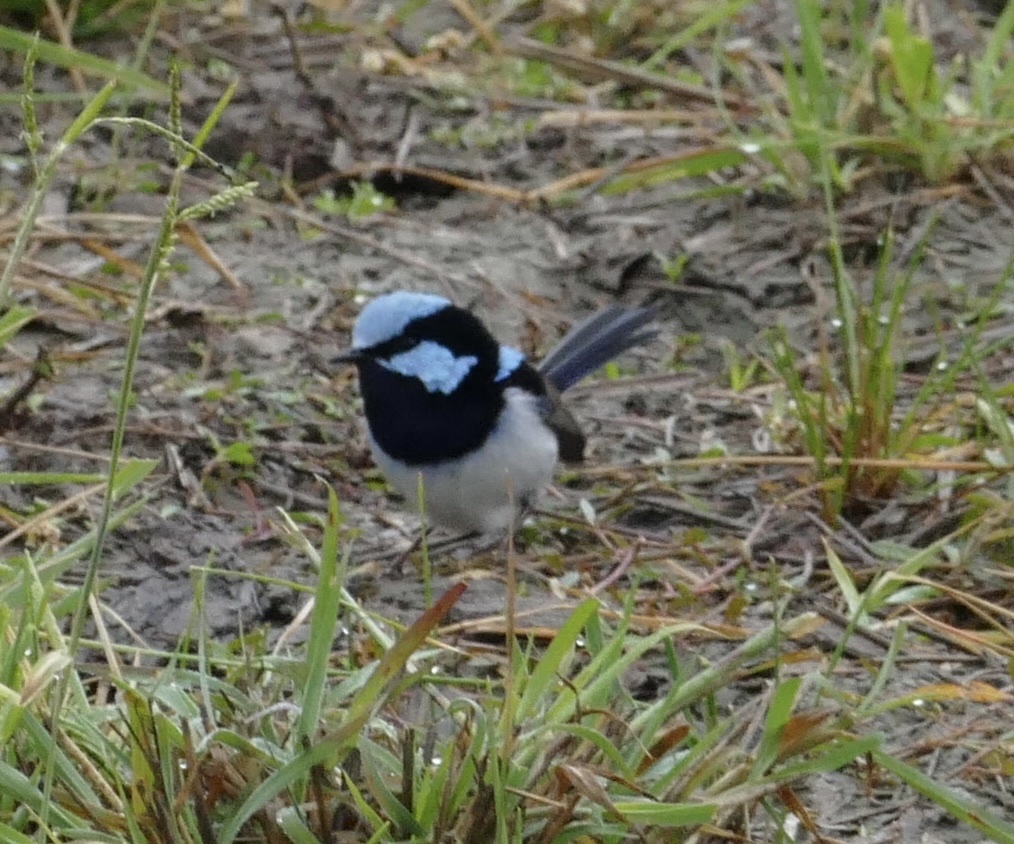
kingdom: Animalia
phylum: Chordata
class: Aves
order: Passeriformes
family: Maluridae
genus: Malurus
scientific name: Malurus cyaneus
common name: Superb fairywren
